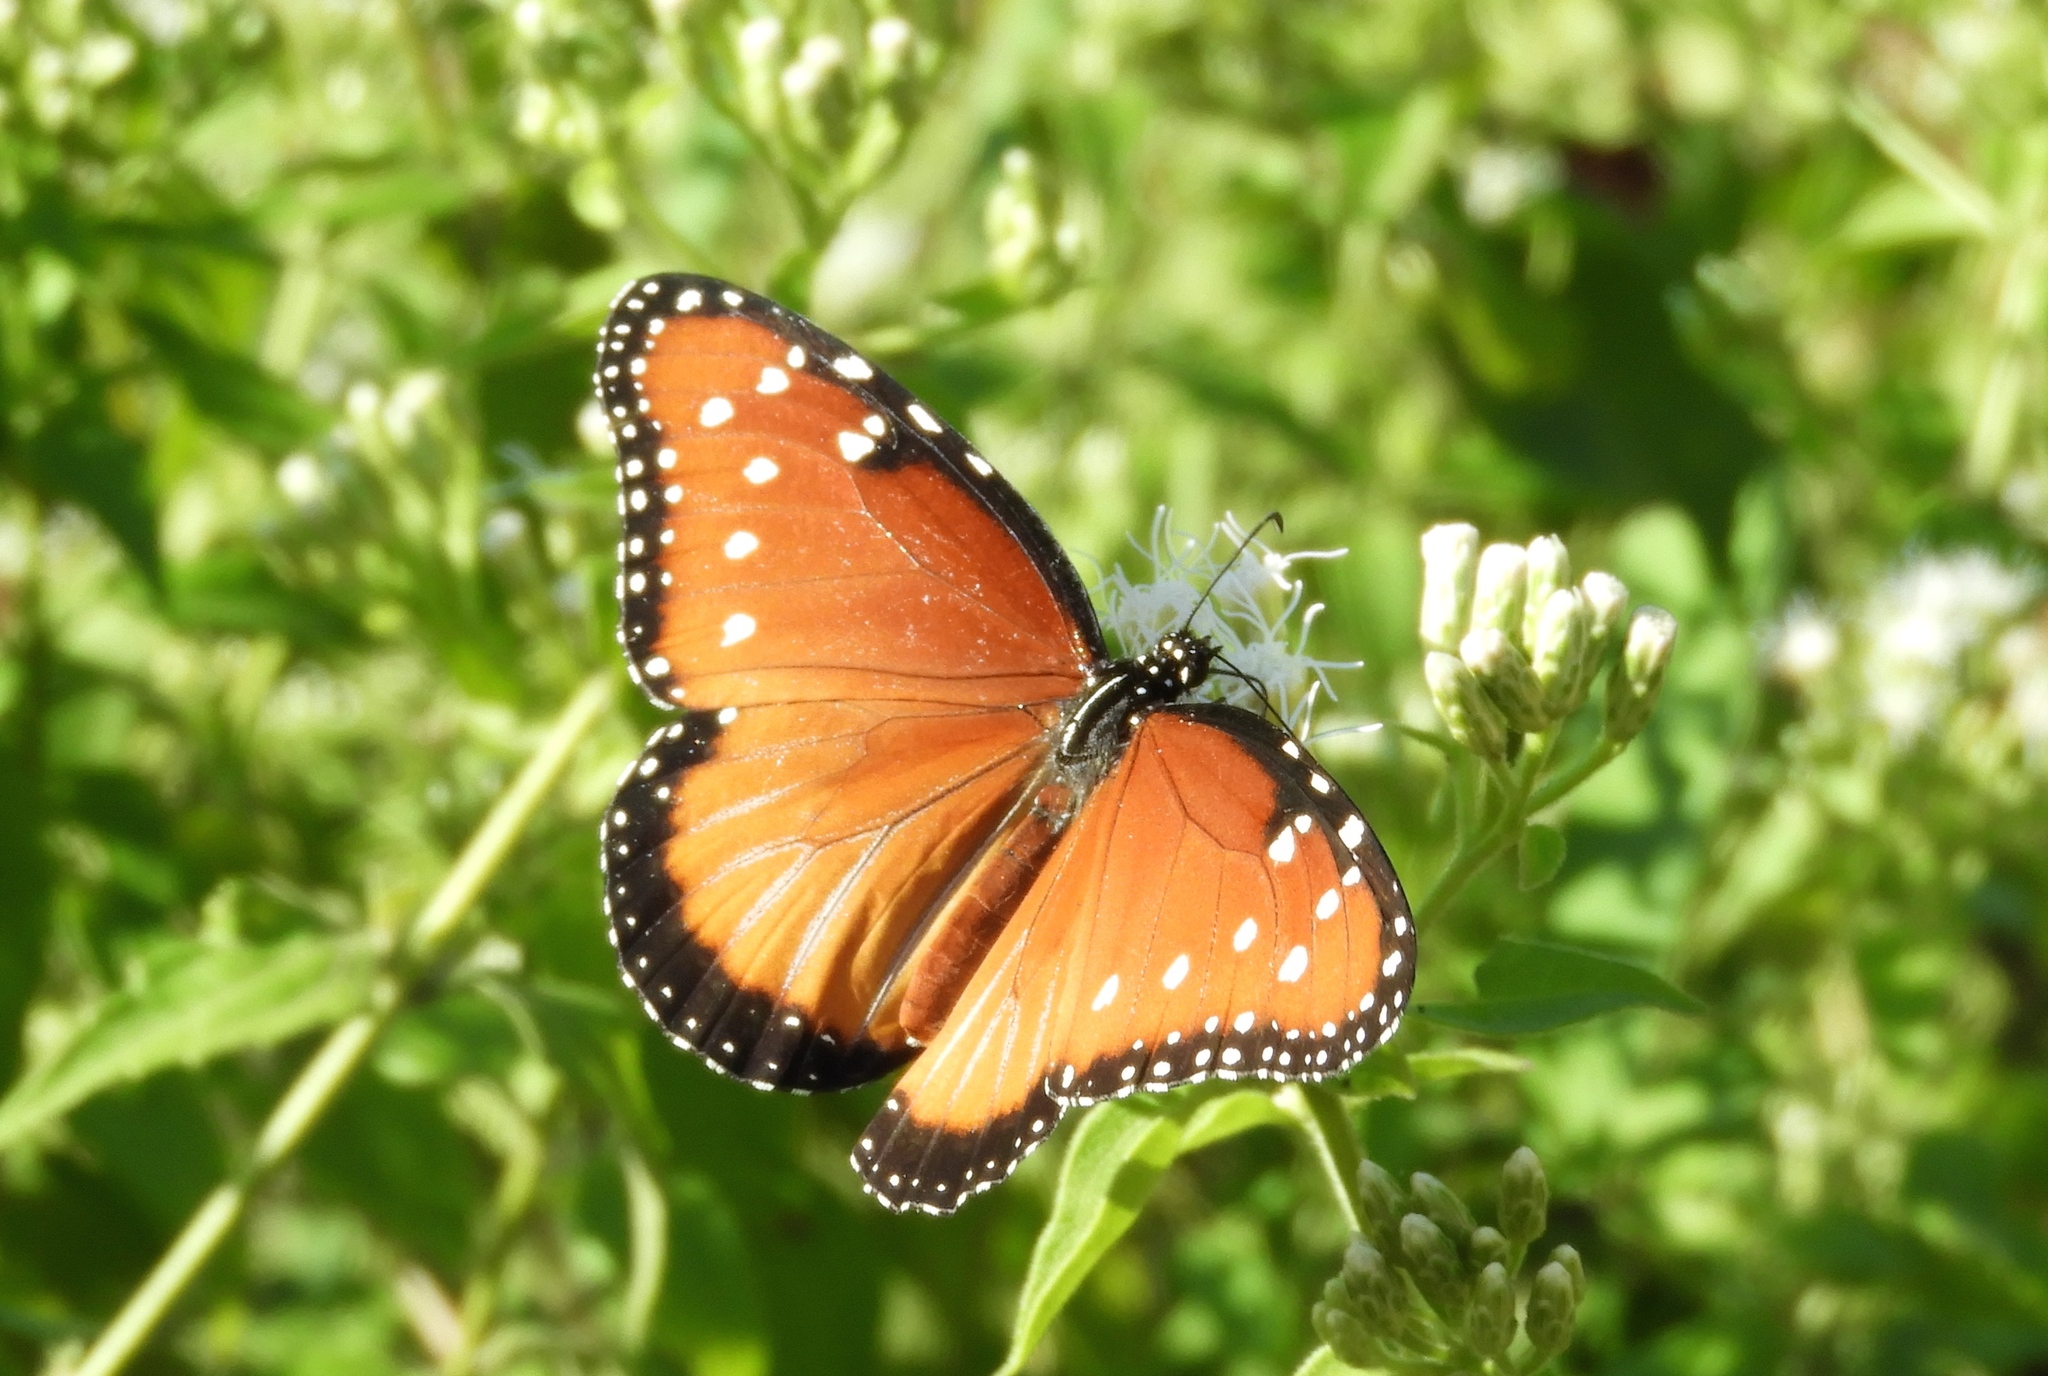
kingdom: Animalia
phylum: Arthropoda
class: Insecta
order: Lepidoptera
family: Nymphalidae
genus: Danaus
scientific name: Danaus gilippus
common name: Queen
